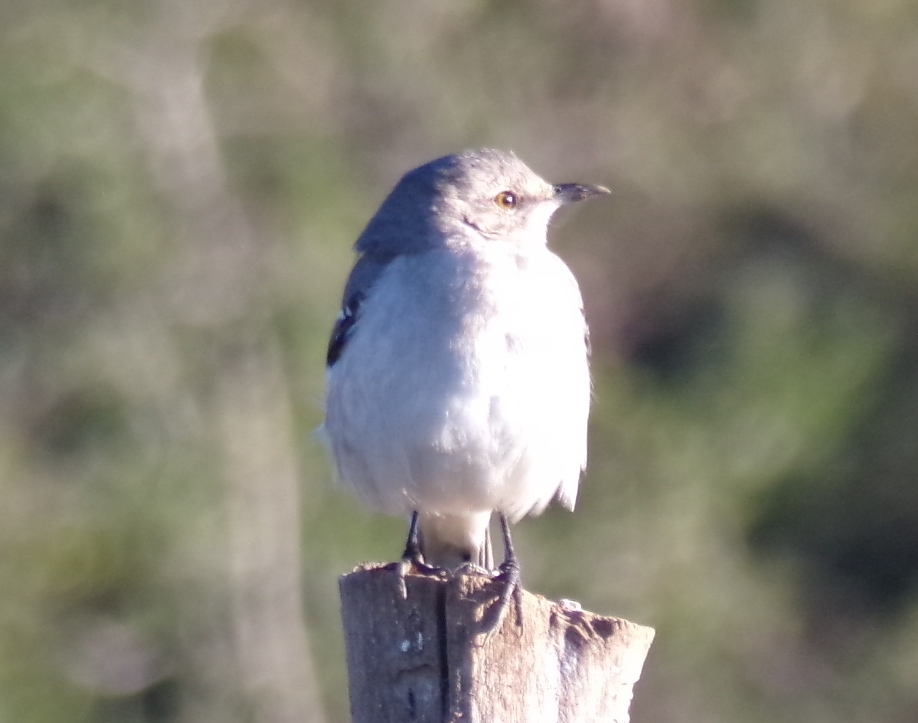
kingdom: Animalia
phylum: Chordata
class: Aves
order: Passeriformes
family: Mimidae
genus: Mimus
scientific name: Mimus polyglottos
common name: Northern mockingbird
